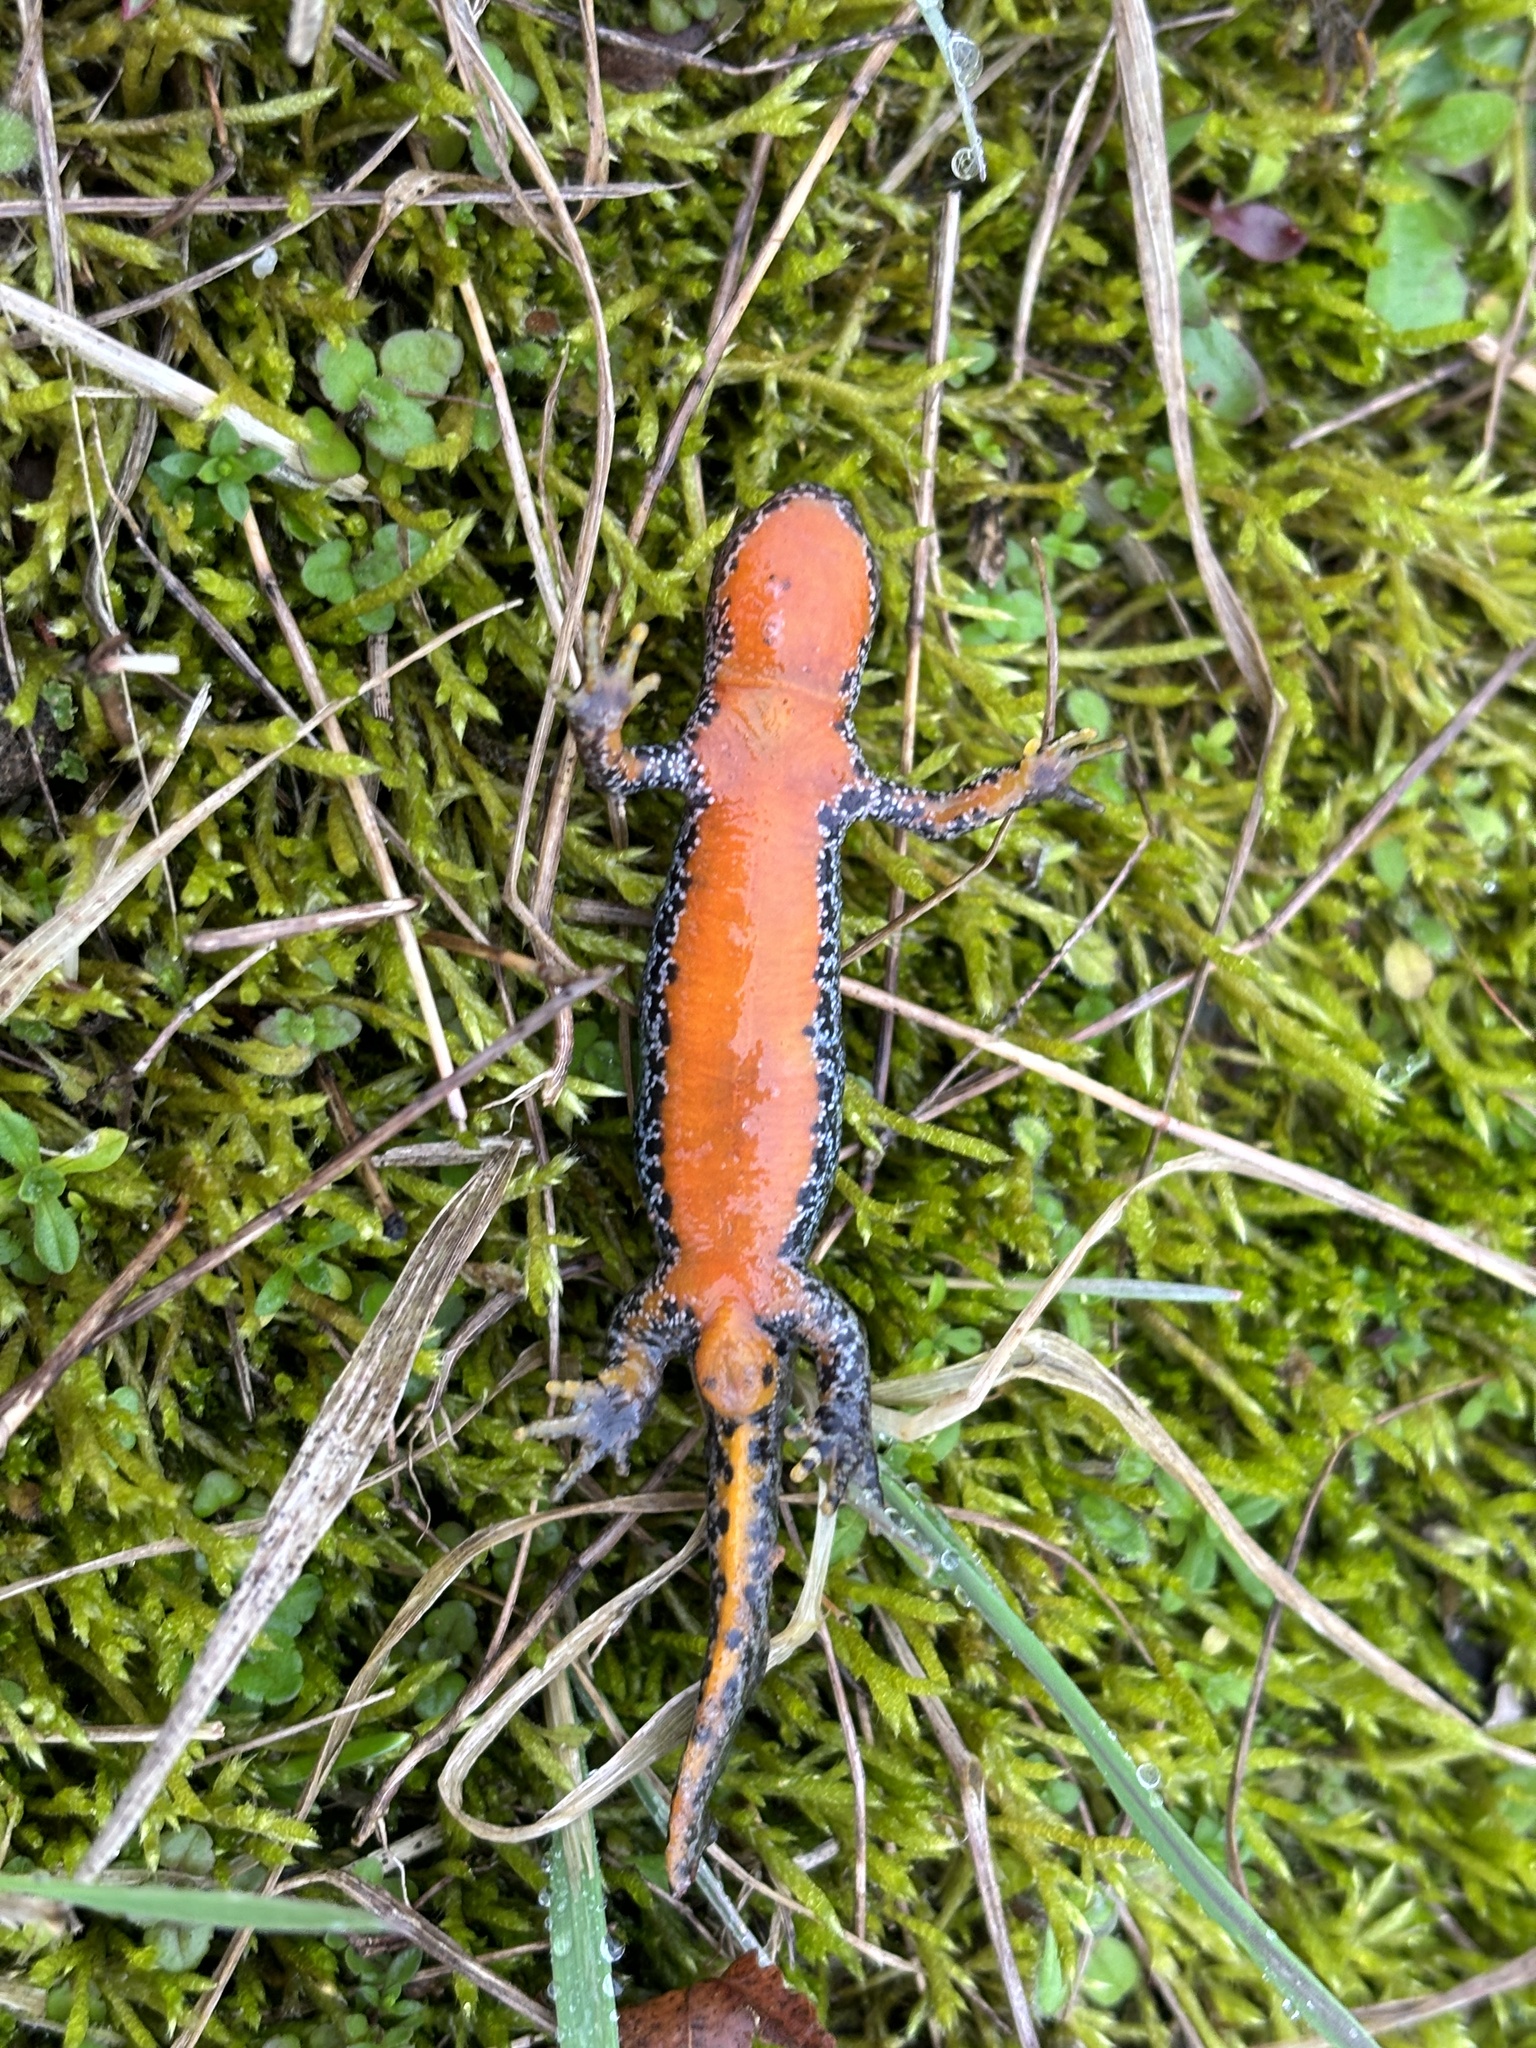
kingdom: Animalia
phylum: Chordata
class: Amphibia
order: Caudata
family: Salamandridae
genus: Ichthyosaura
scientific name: Ichthyosaura alpestris
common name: Alpine newt
